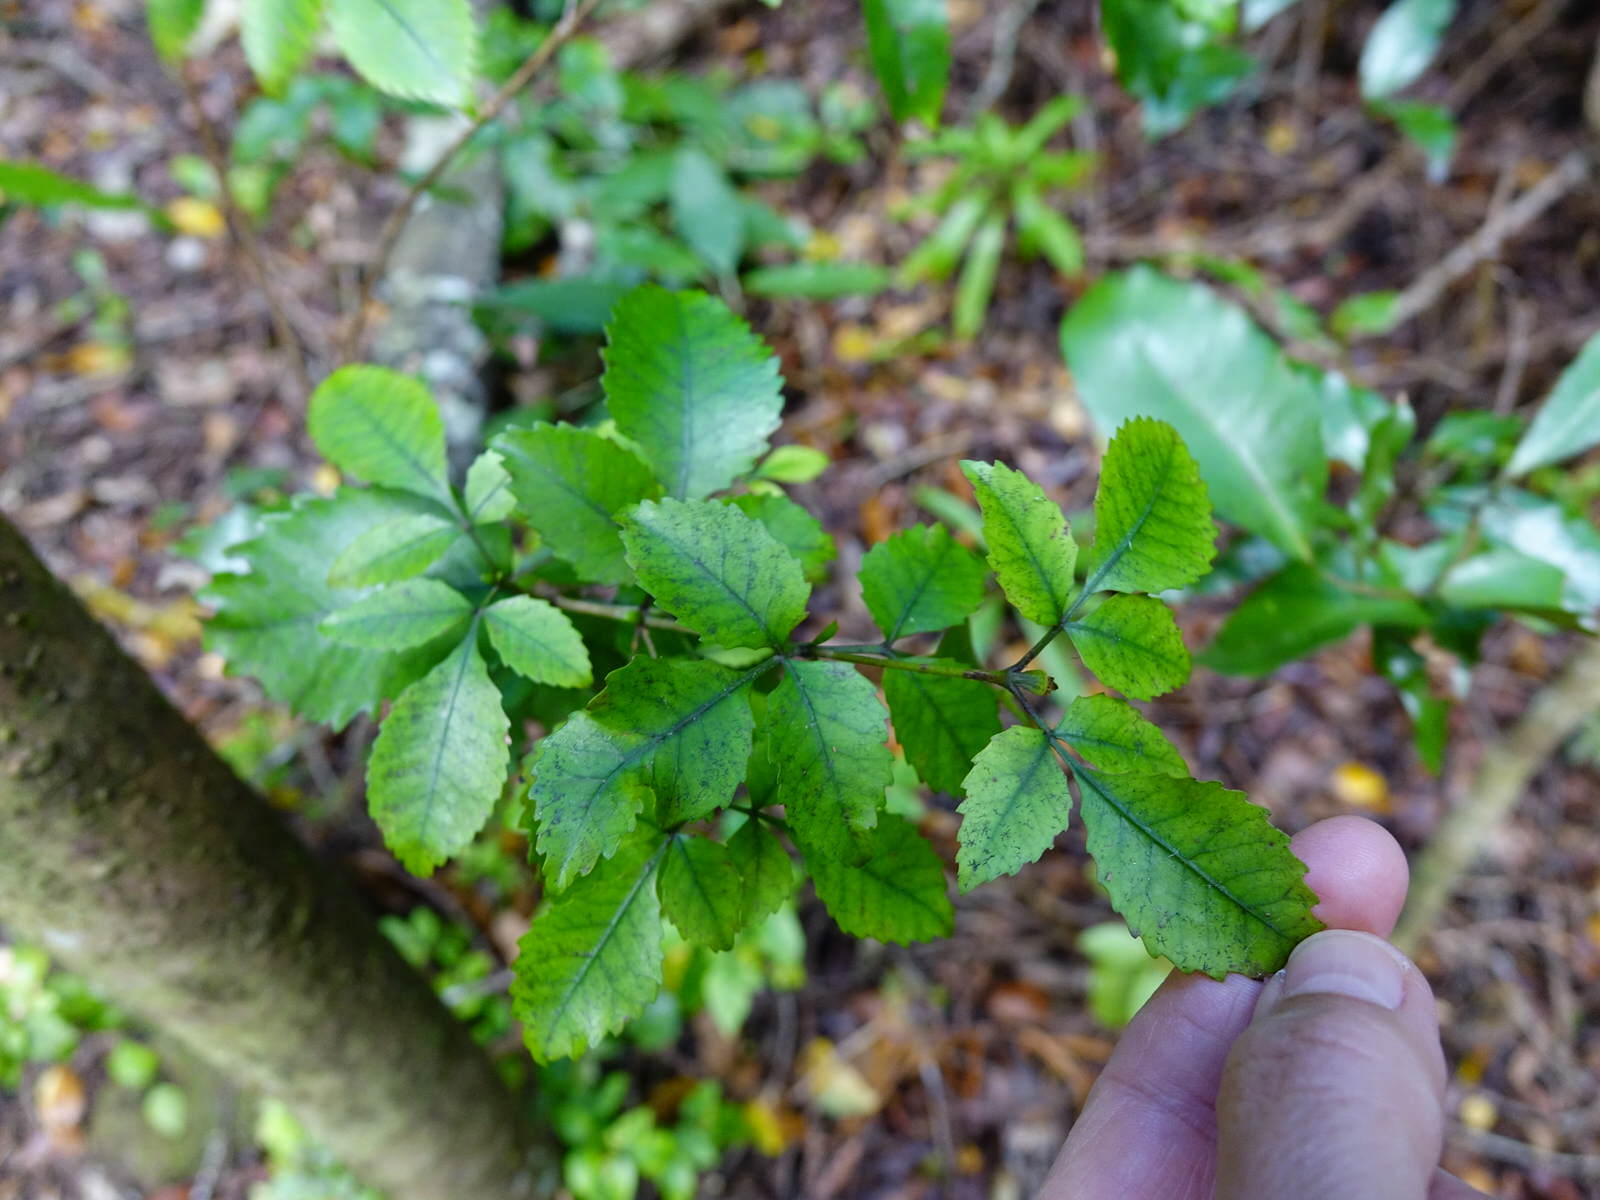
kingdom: Plantae
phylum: Tracheophyta
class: Magnoliopsida
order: Oxalidales
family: Cunoniaceae
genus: Pterophylla
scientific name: Pterophylla racemosa
